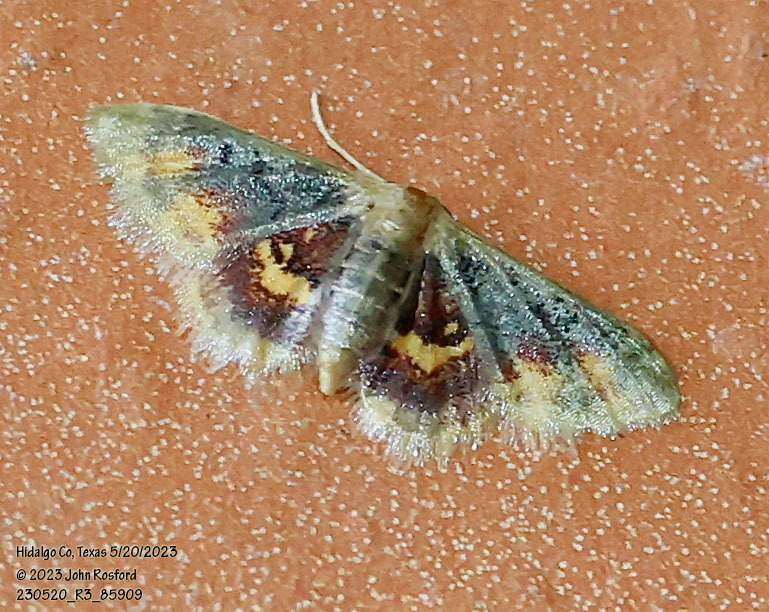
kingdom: Animalia
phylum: Arthropoda
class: Insecta
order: Lepidoptera
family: Geometridae
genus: Idaea
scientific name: Idaea scintillularia
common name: Diminutive wave
